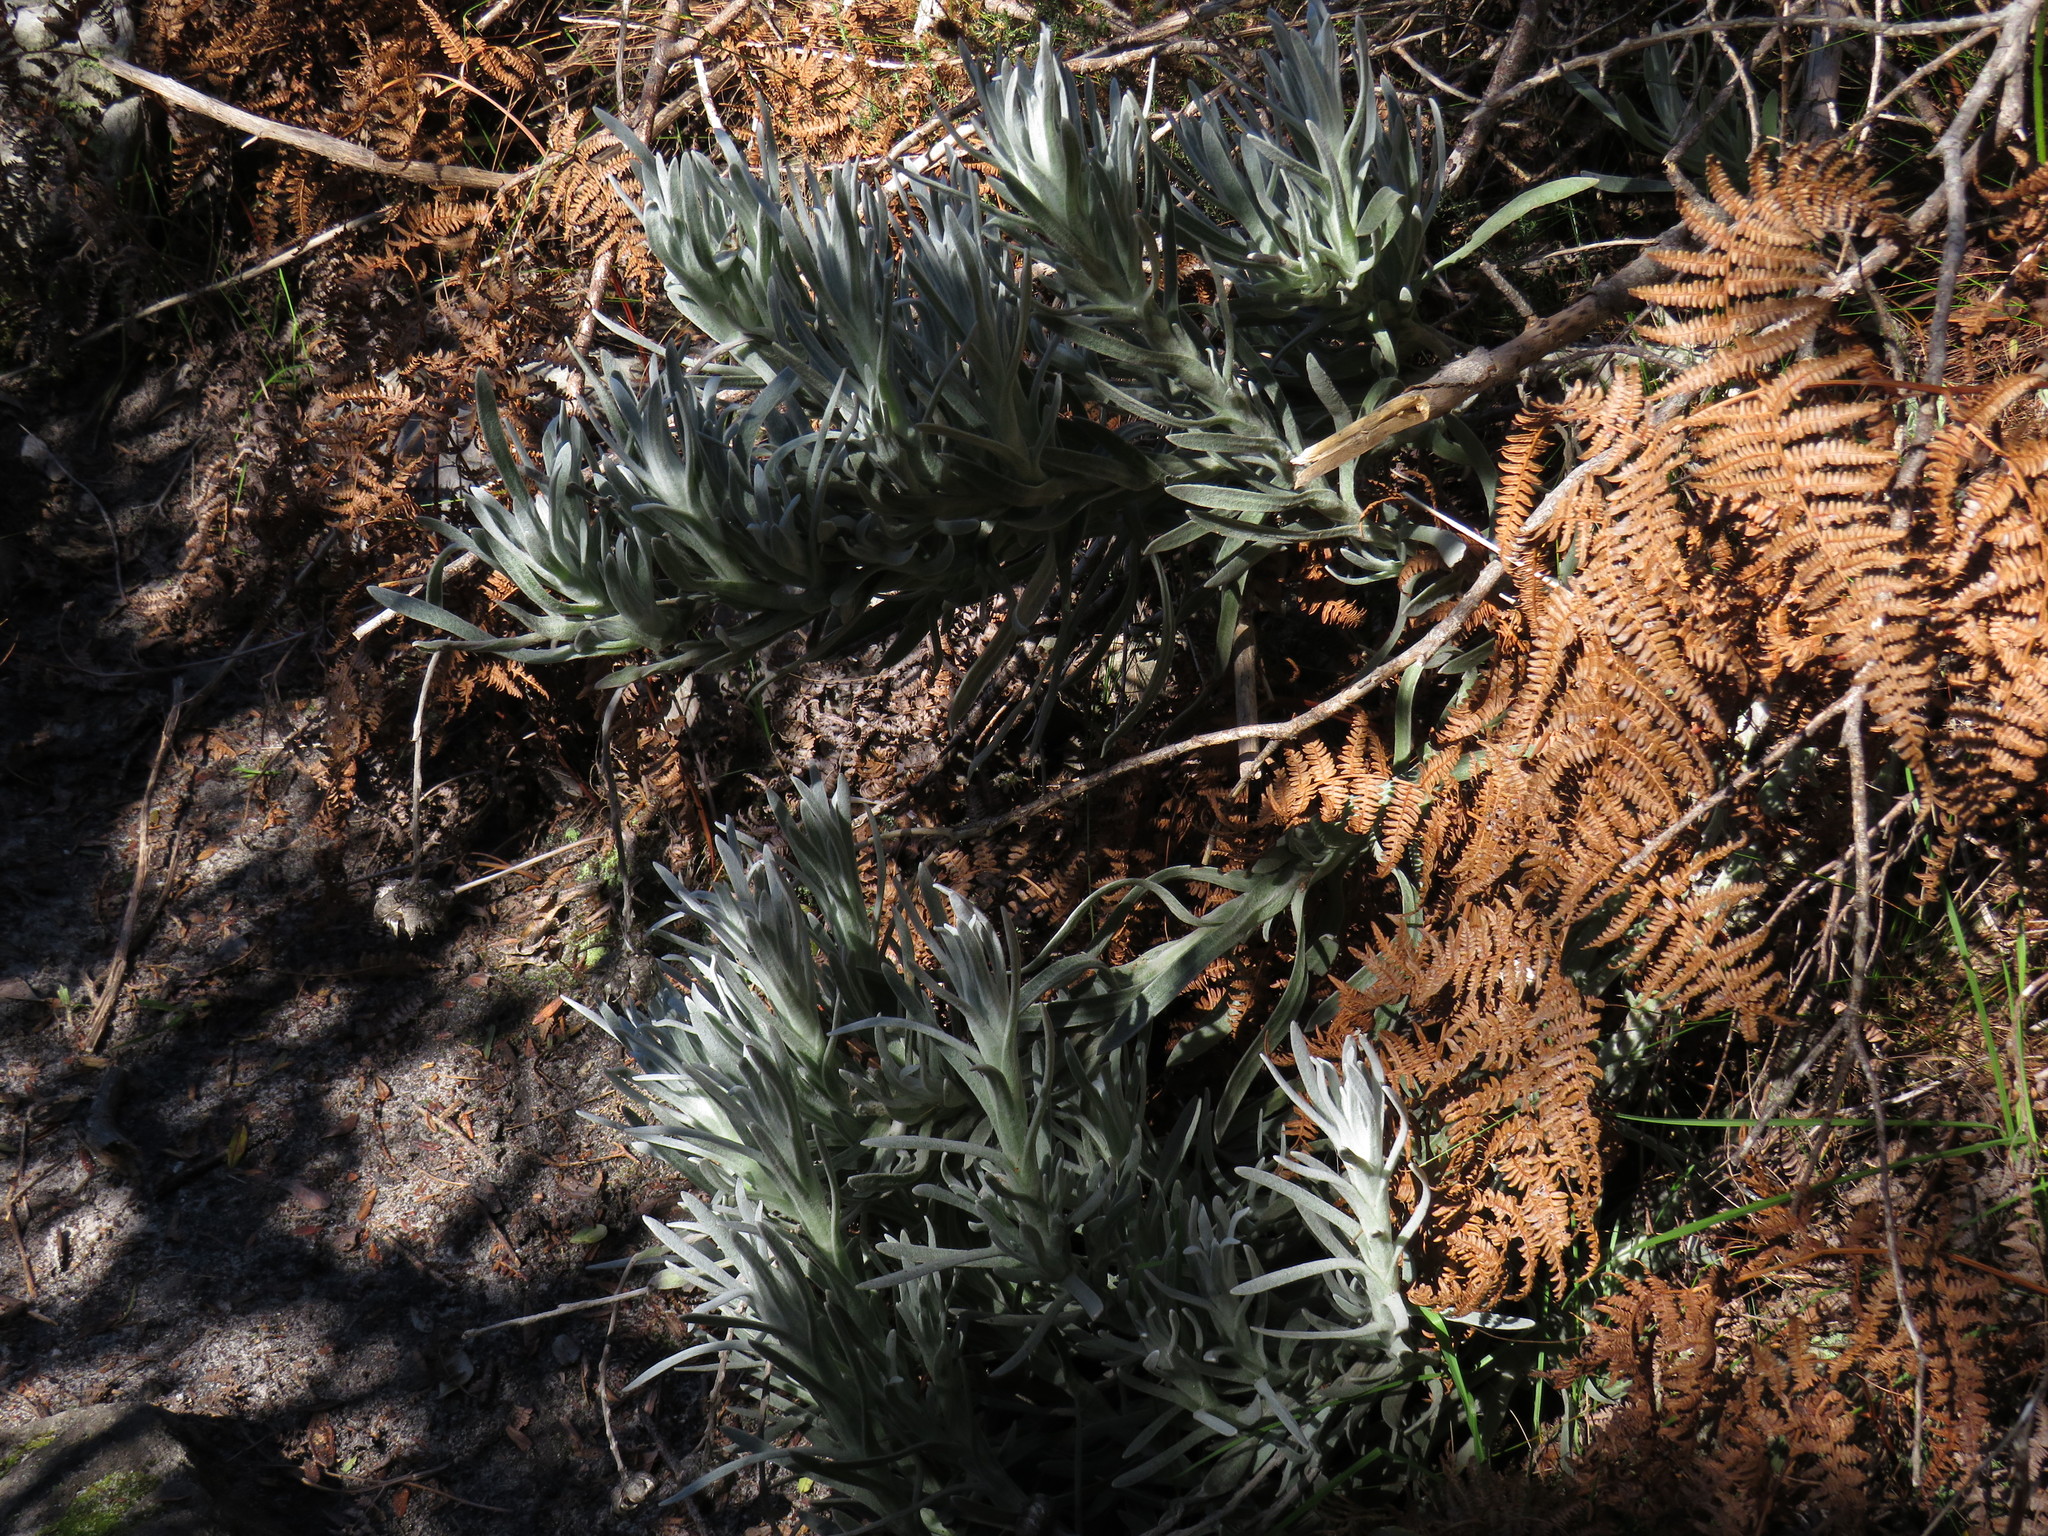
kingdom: Plantae
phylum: Tracheophyta
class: Magnoliopsida
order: Asterales
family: Asteraceae
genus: Syncarpha
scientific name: Syncarpha vestita
